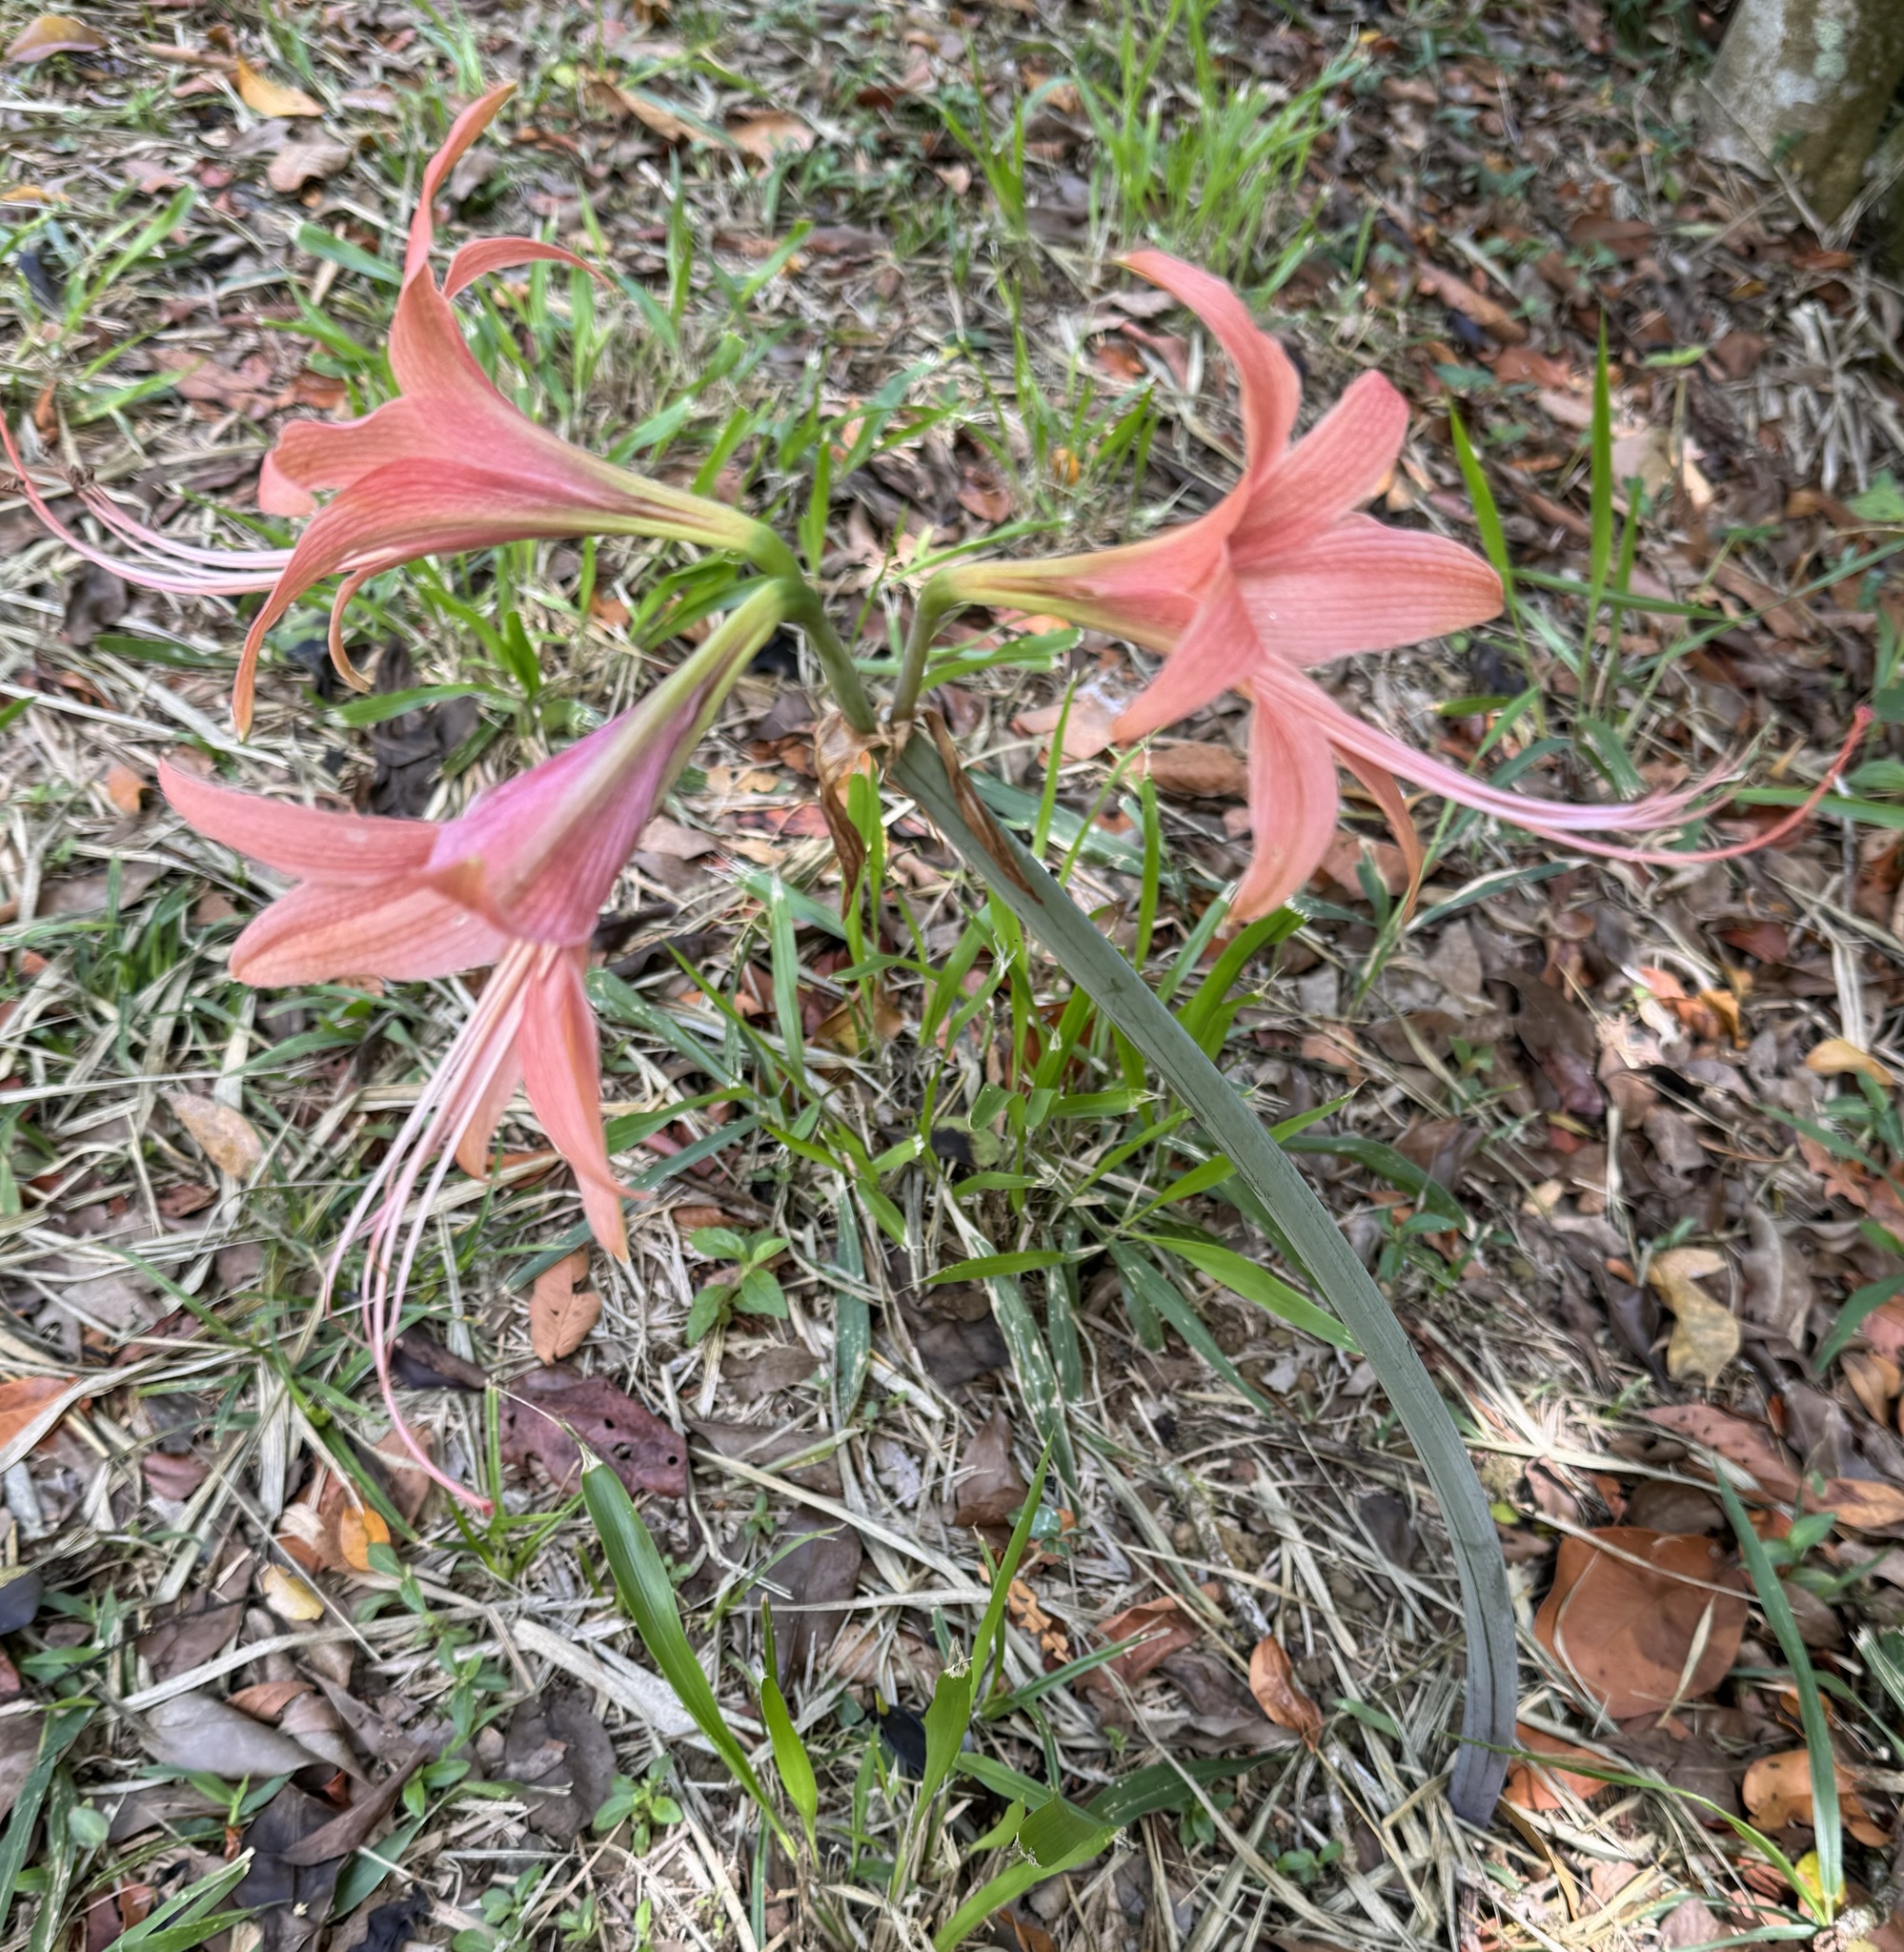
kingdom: Plantae
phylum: Tracheophyta
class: Liliopsida
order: Asparagales
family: Amaryllidaceae
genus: Hippeastrum
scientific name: Hippeastrum stylosum
